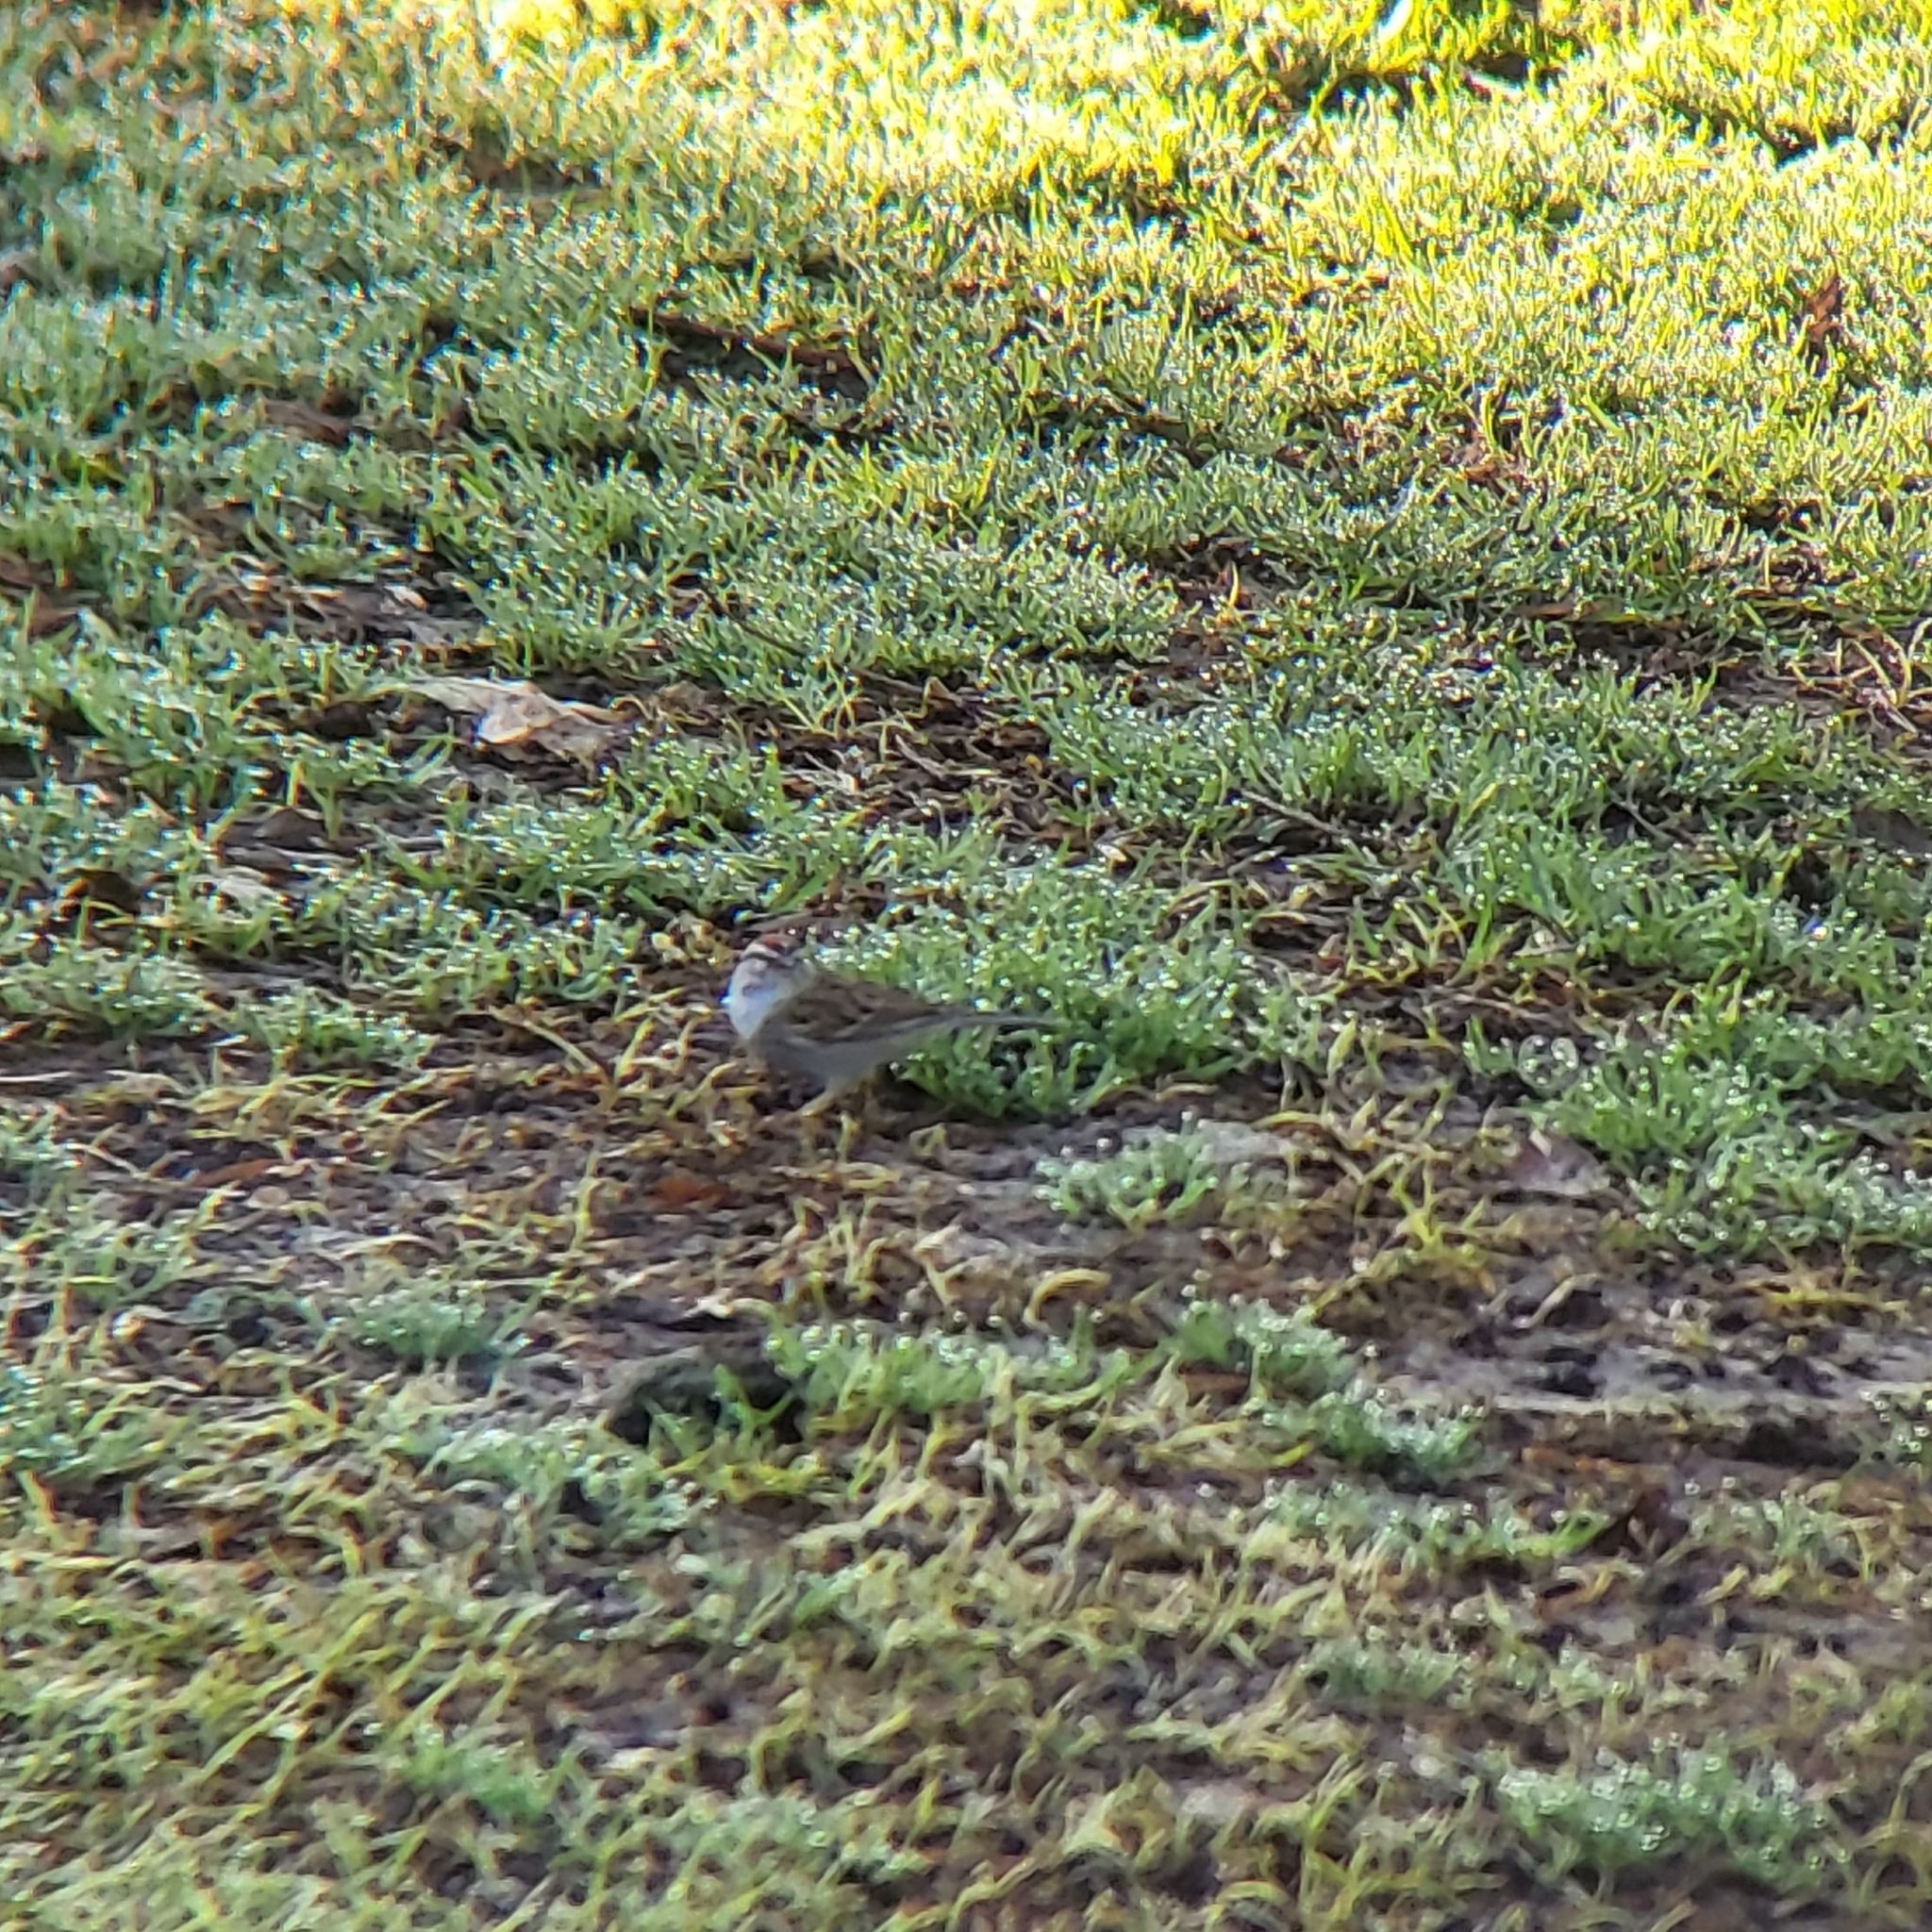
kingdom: Animalia
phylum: Chordata
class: Aves
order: Passeriformes
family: Passerellidae
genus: Spizella
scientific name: Spizella passerina
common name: Chipping sparrow
